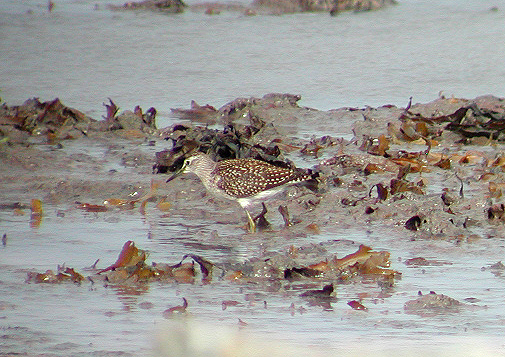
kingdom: Animalia
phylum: Chordata
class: Aves
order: Charadriiformes
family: Scolopacidae
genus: Tringa
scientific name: Tringa glareola
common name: Wood sandpiper
